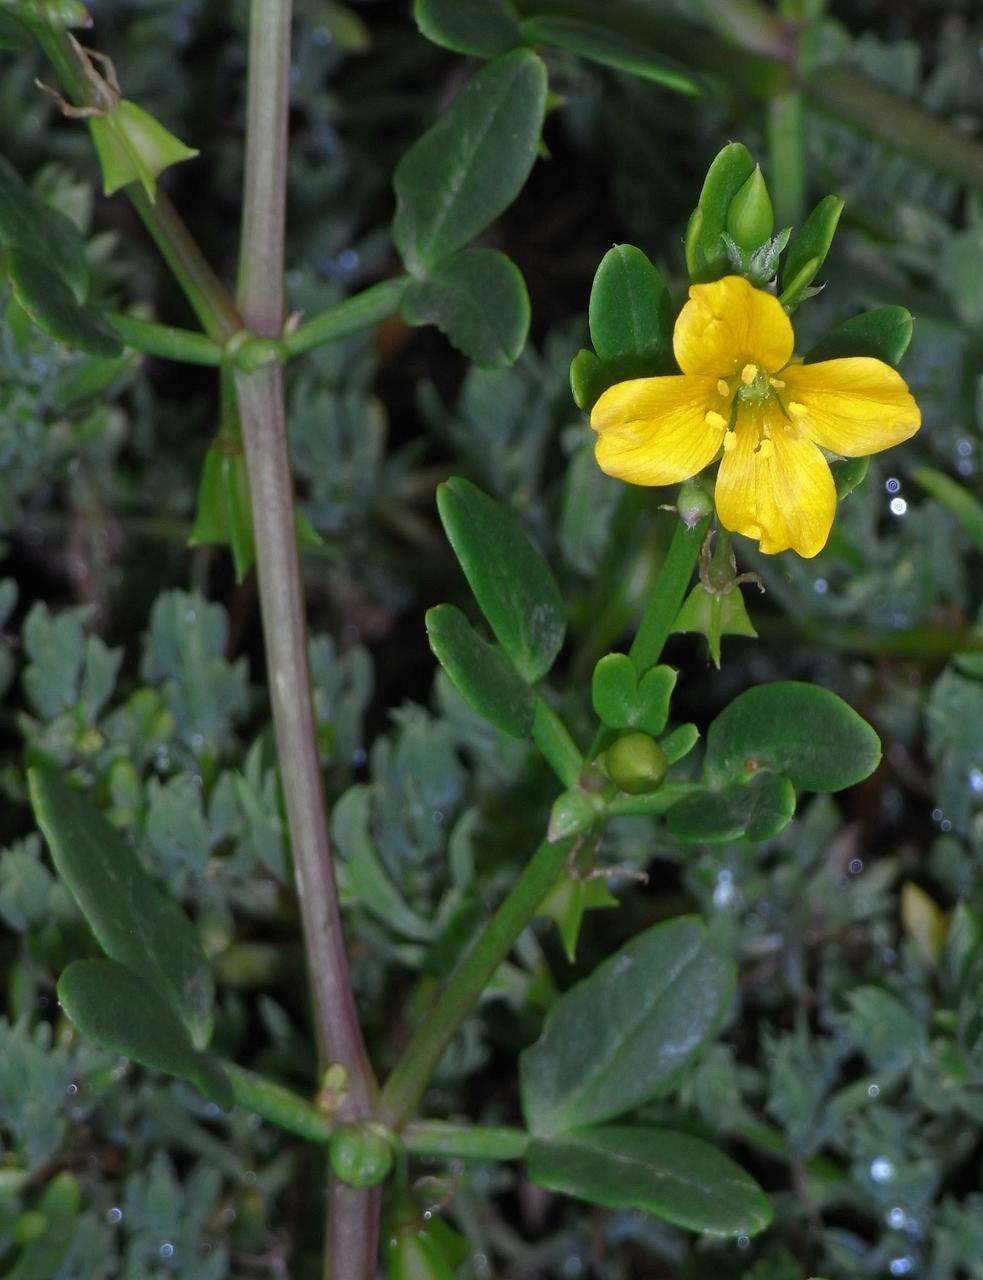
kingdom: Plantae
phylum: Tracheophyta
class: Magnoliopsida
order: Zygophyllales
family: Zygophyllaceae
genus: Roepera
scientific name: Roepera billardieri
